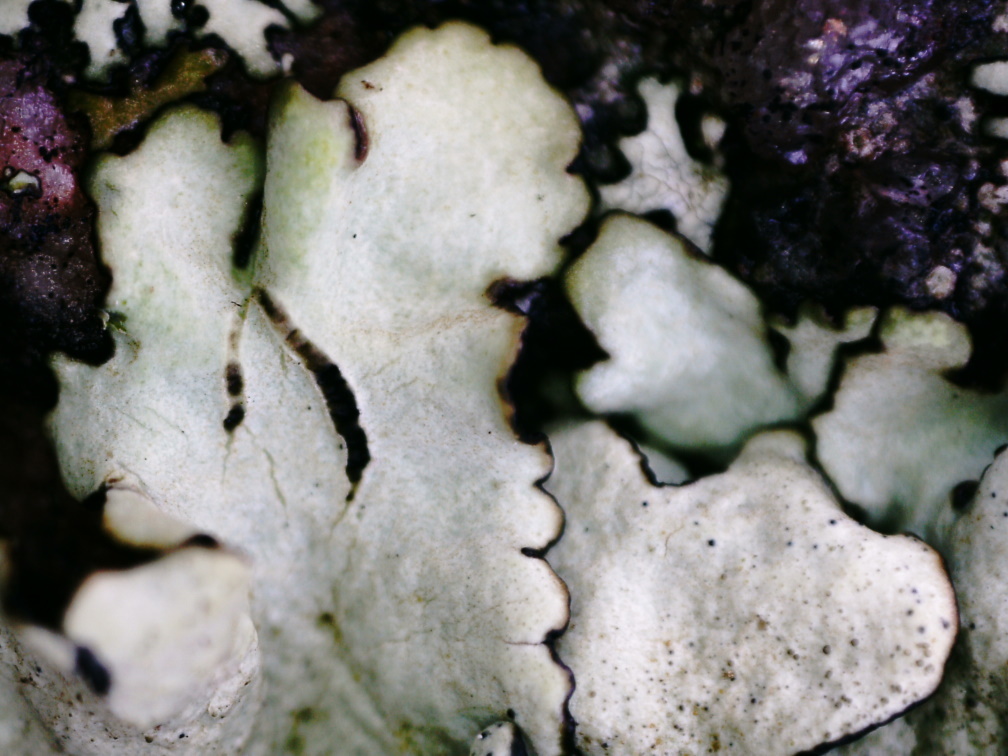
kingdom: Fungi
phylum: Ascomycota
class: Lecanoromycetes
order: Lecanorales
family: Parmeliaceae
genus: Xanthoparmelia
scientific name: Xanthoparmelia conspersa
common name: Peppered rock shield
